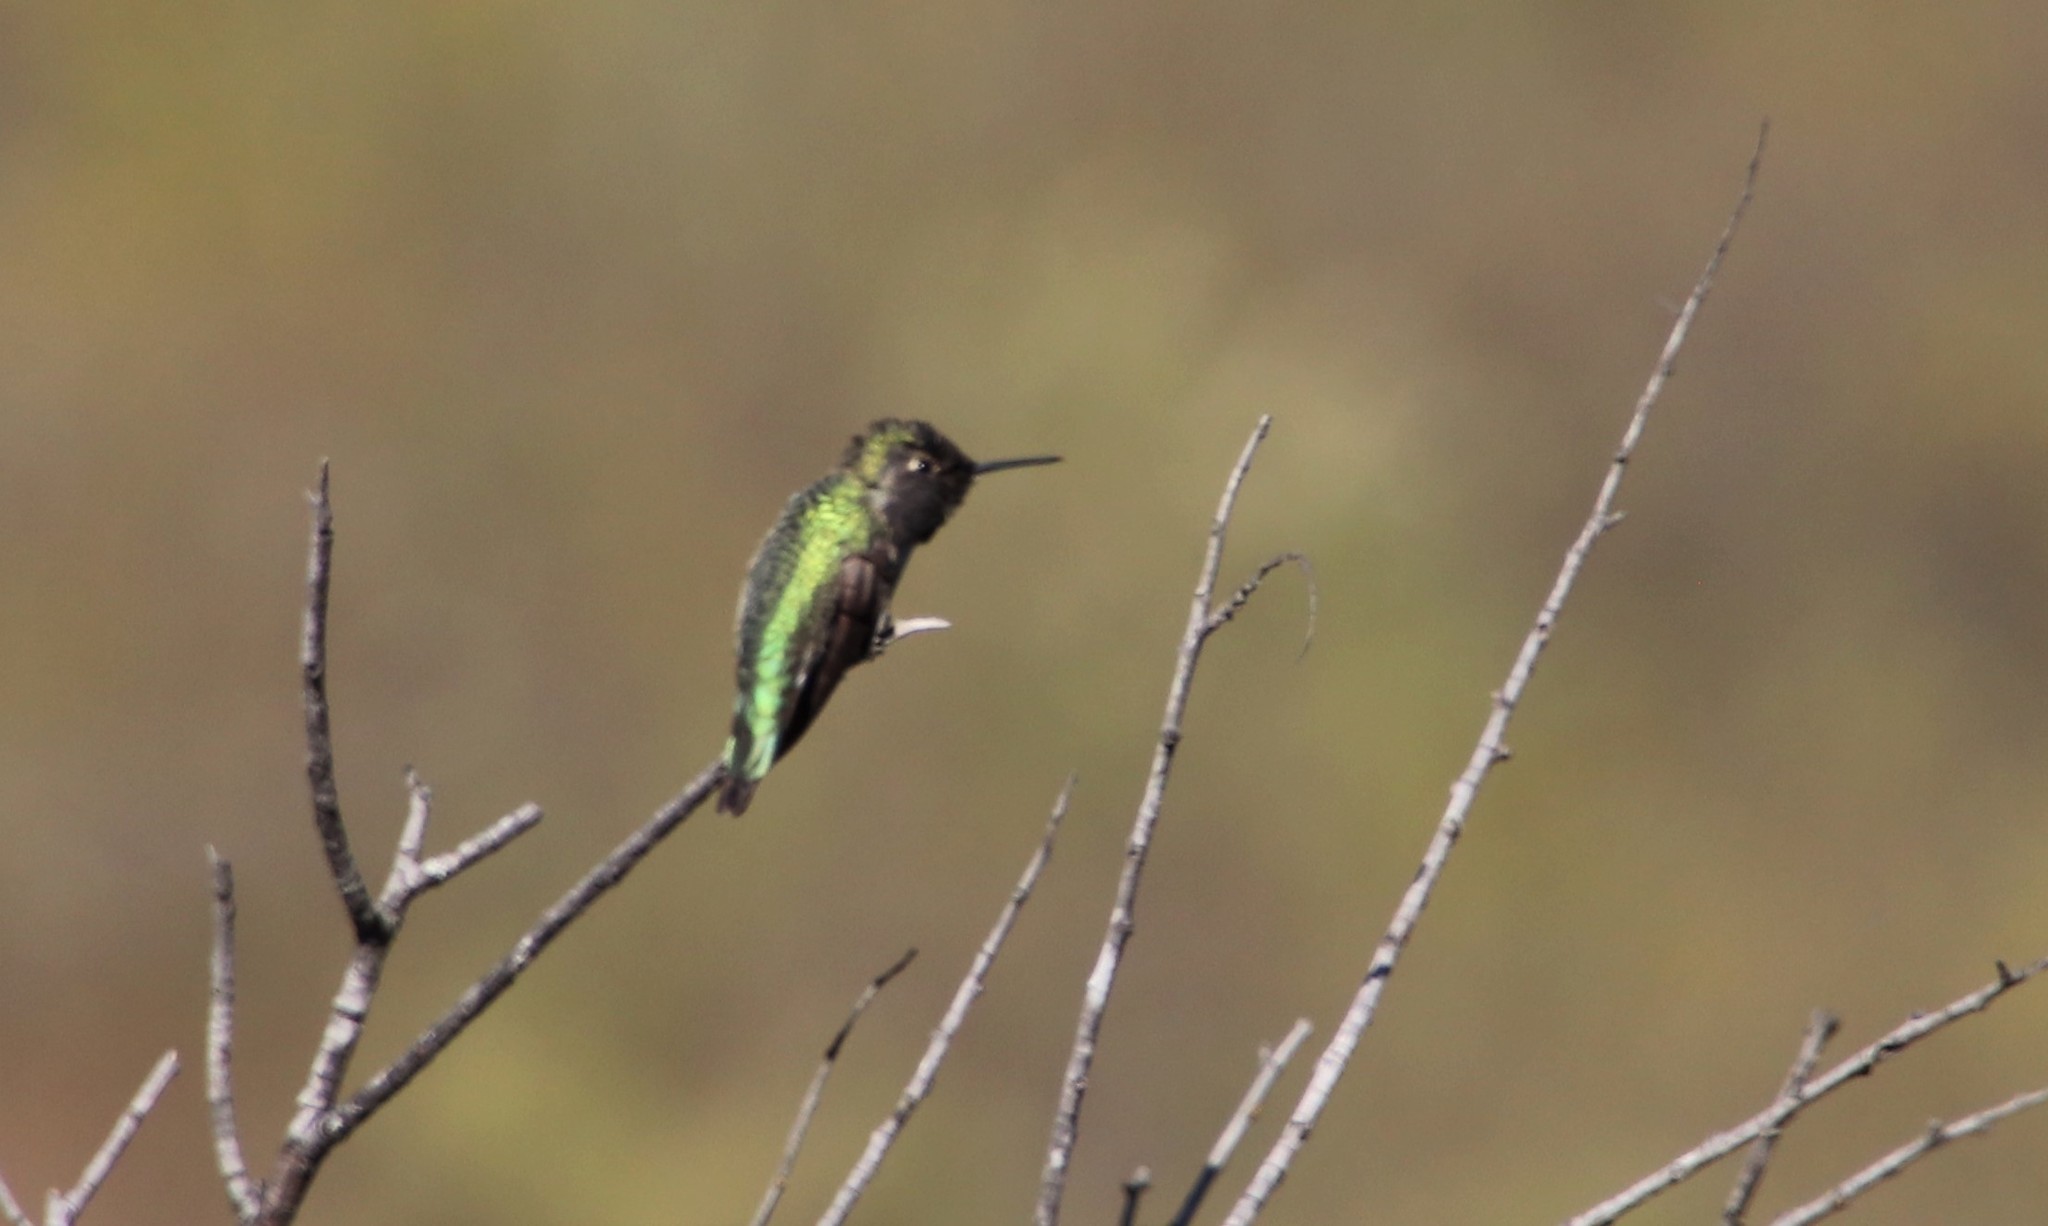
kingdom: Animalia
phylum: Chordata
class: Aves
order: Apodiformes
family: Trochilidae
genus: Calypte
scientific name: Calypte anna
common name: Anna's hummingbird
